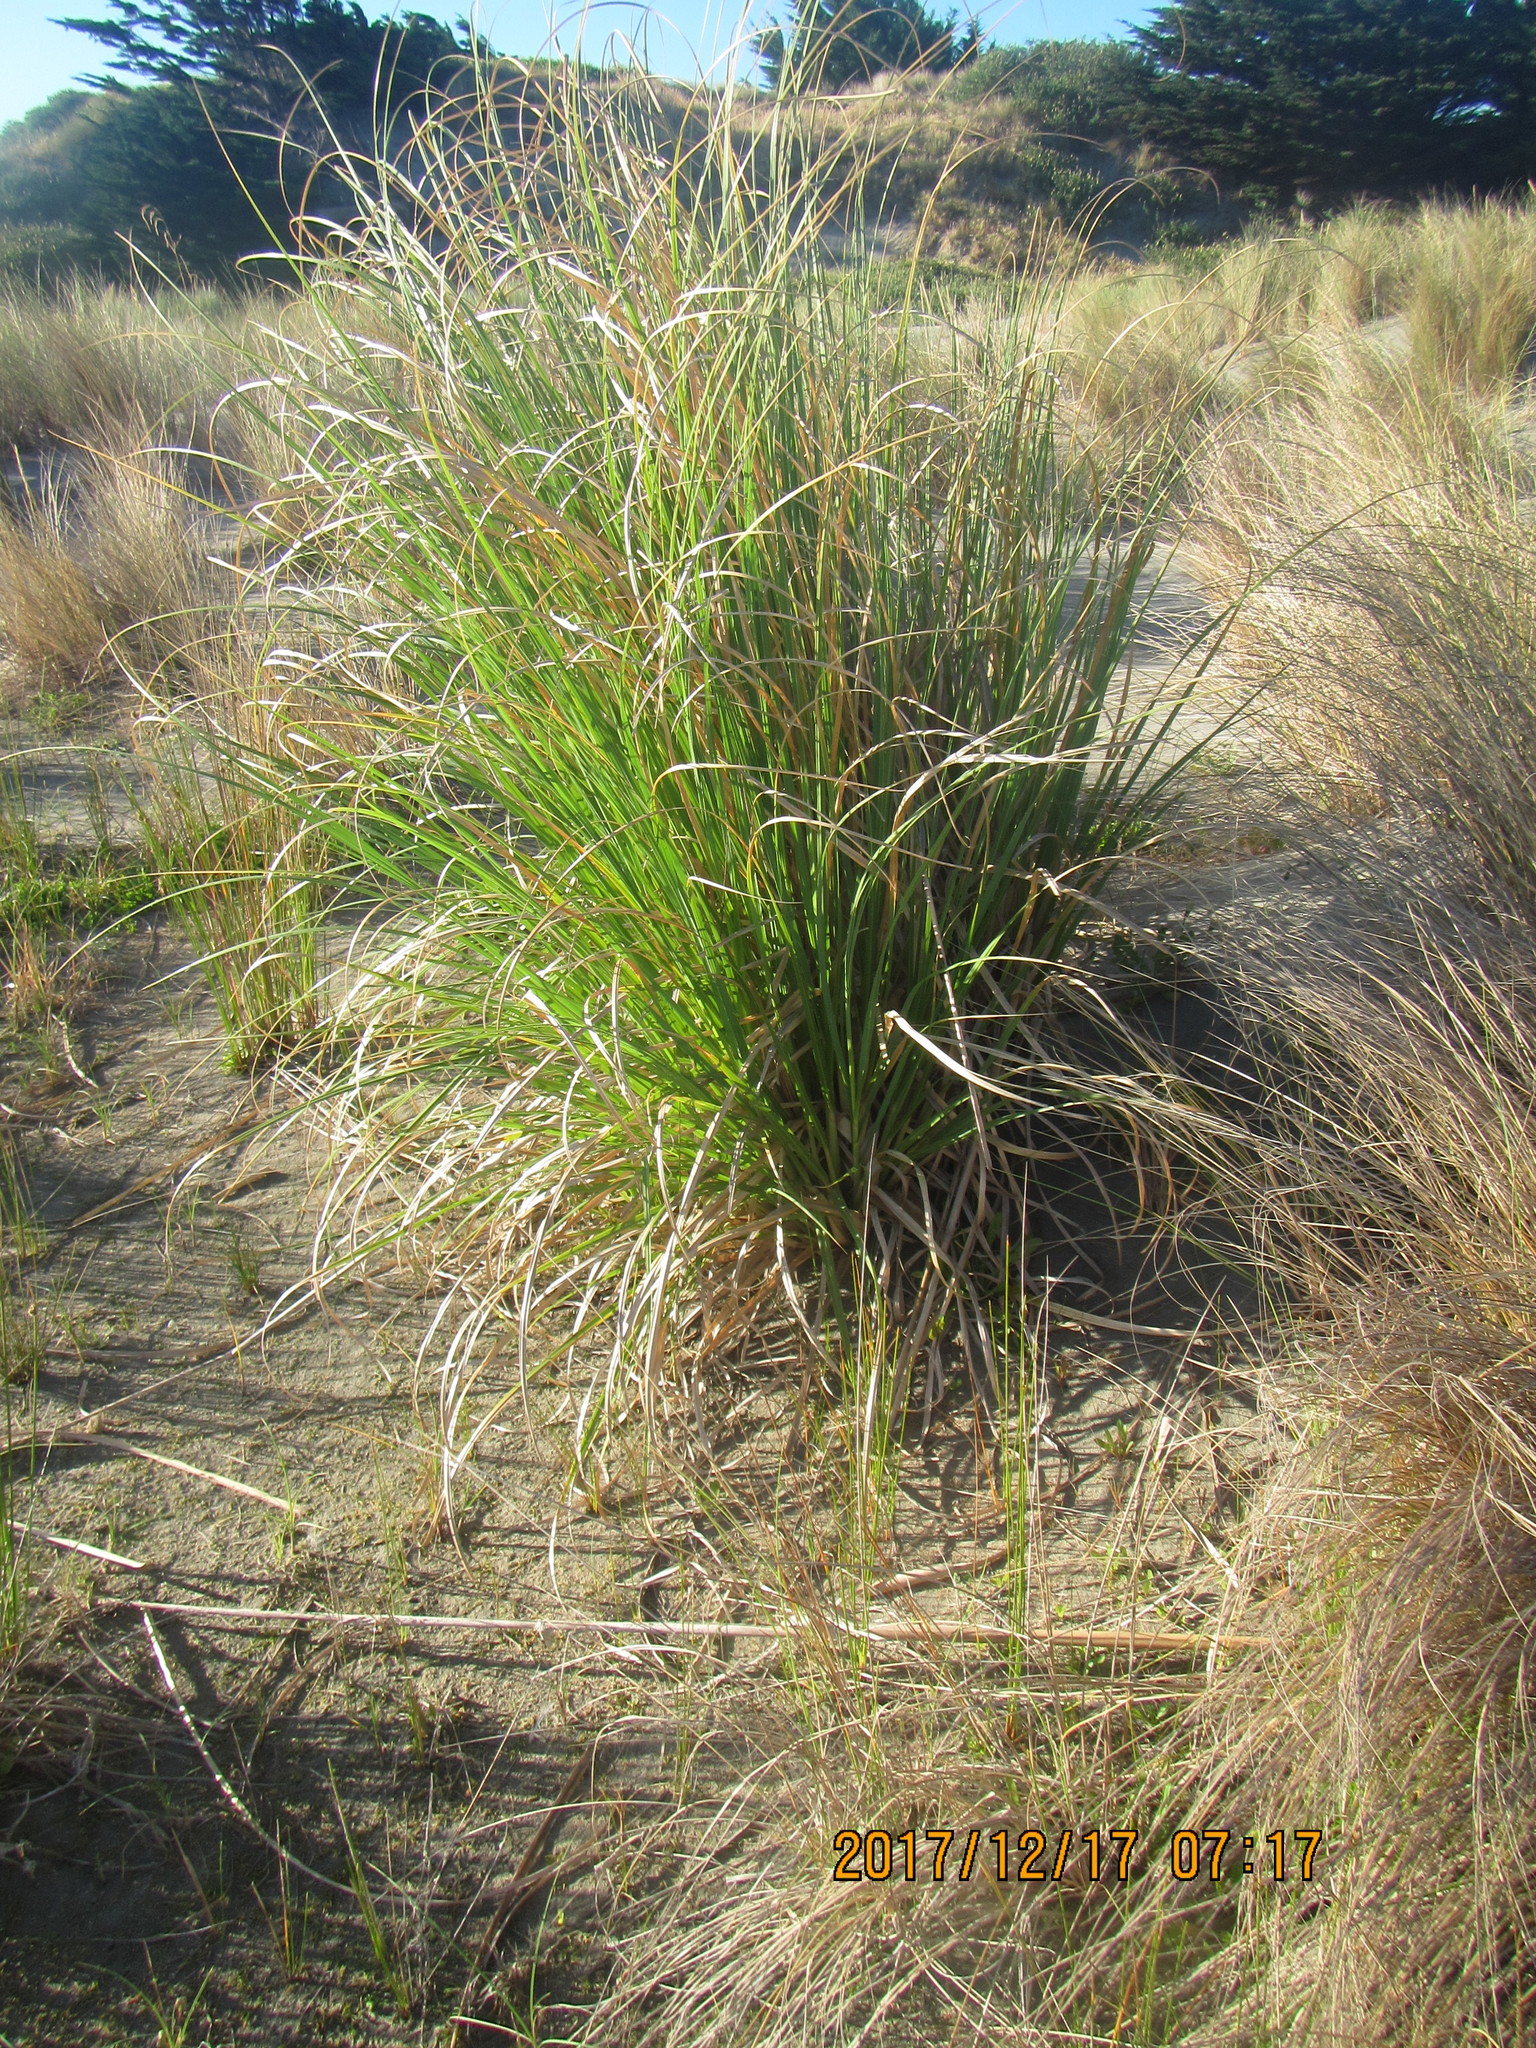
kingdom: Plantae
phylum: Tracheophyta
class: Liliopsida
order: Poales
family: Poaceae
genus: Cortaderia
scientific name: Cortaderia selloana
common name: Uruguayan pampas grass
